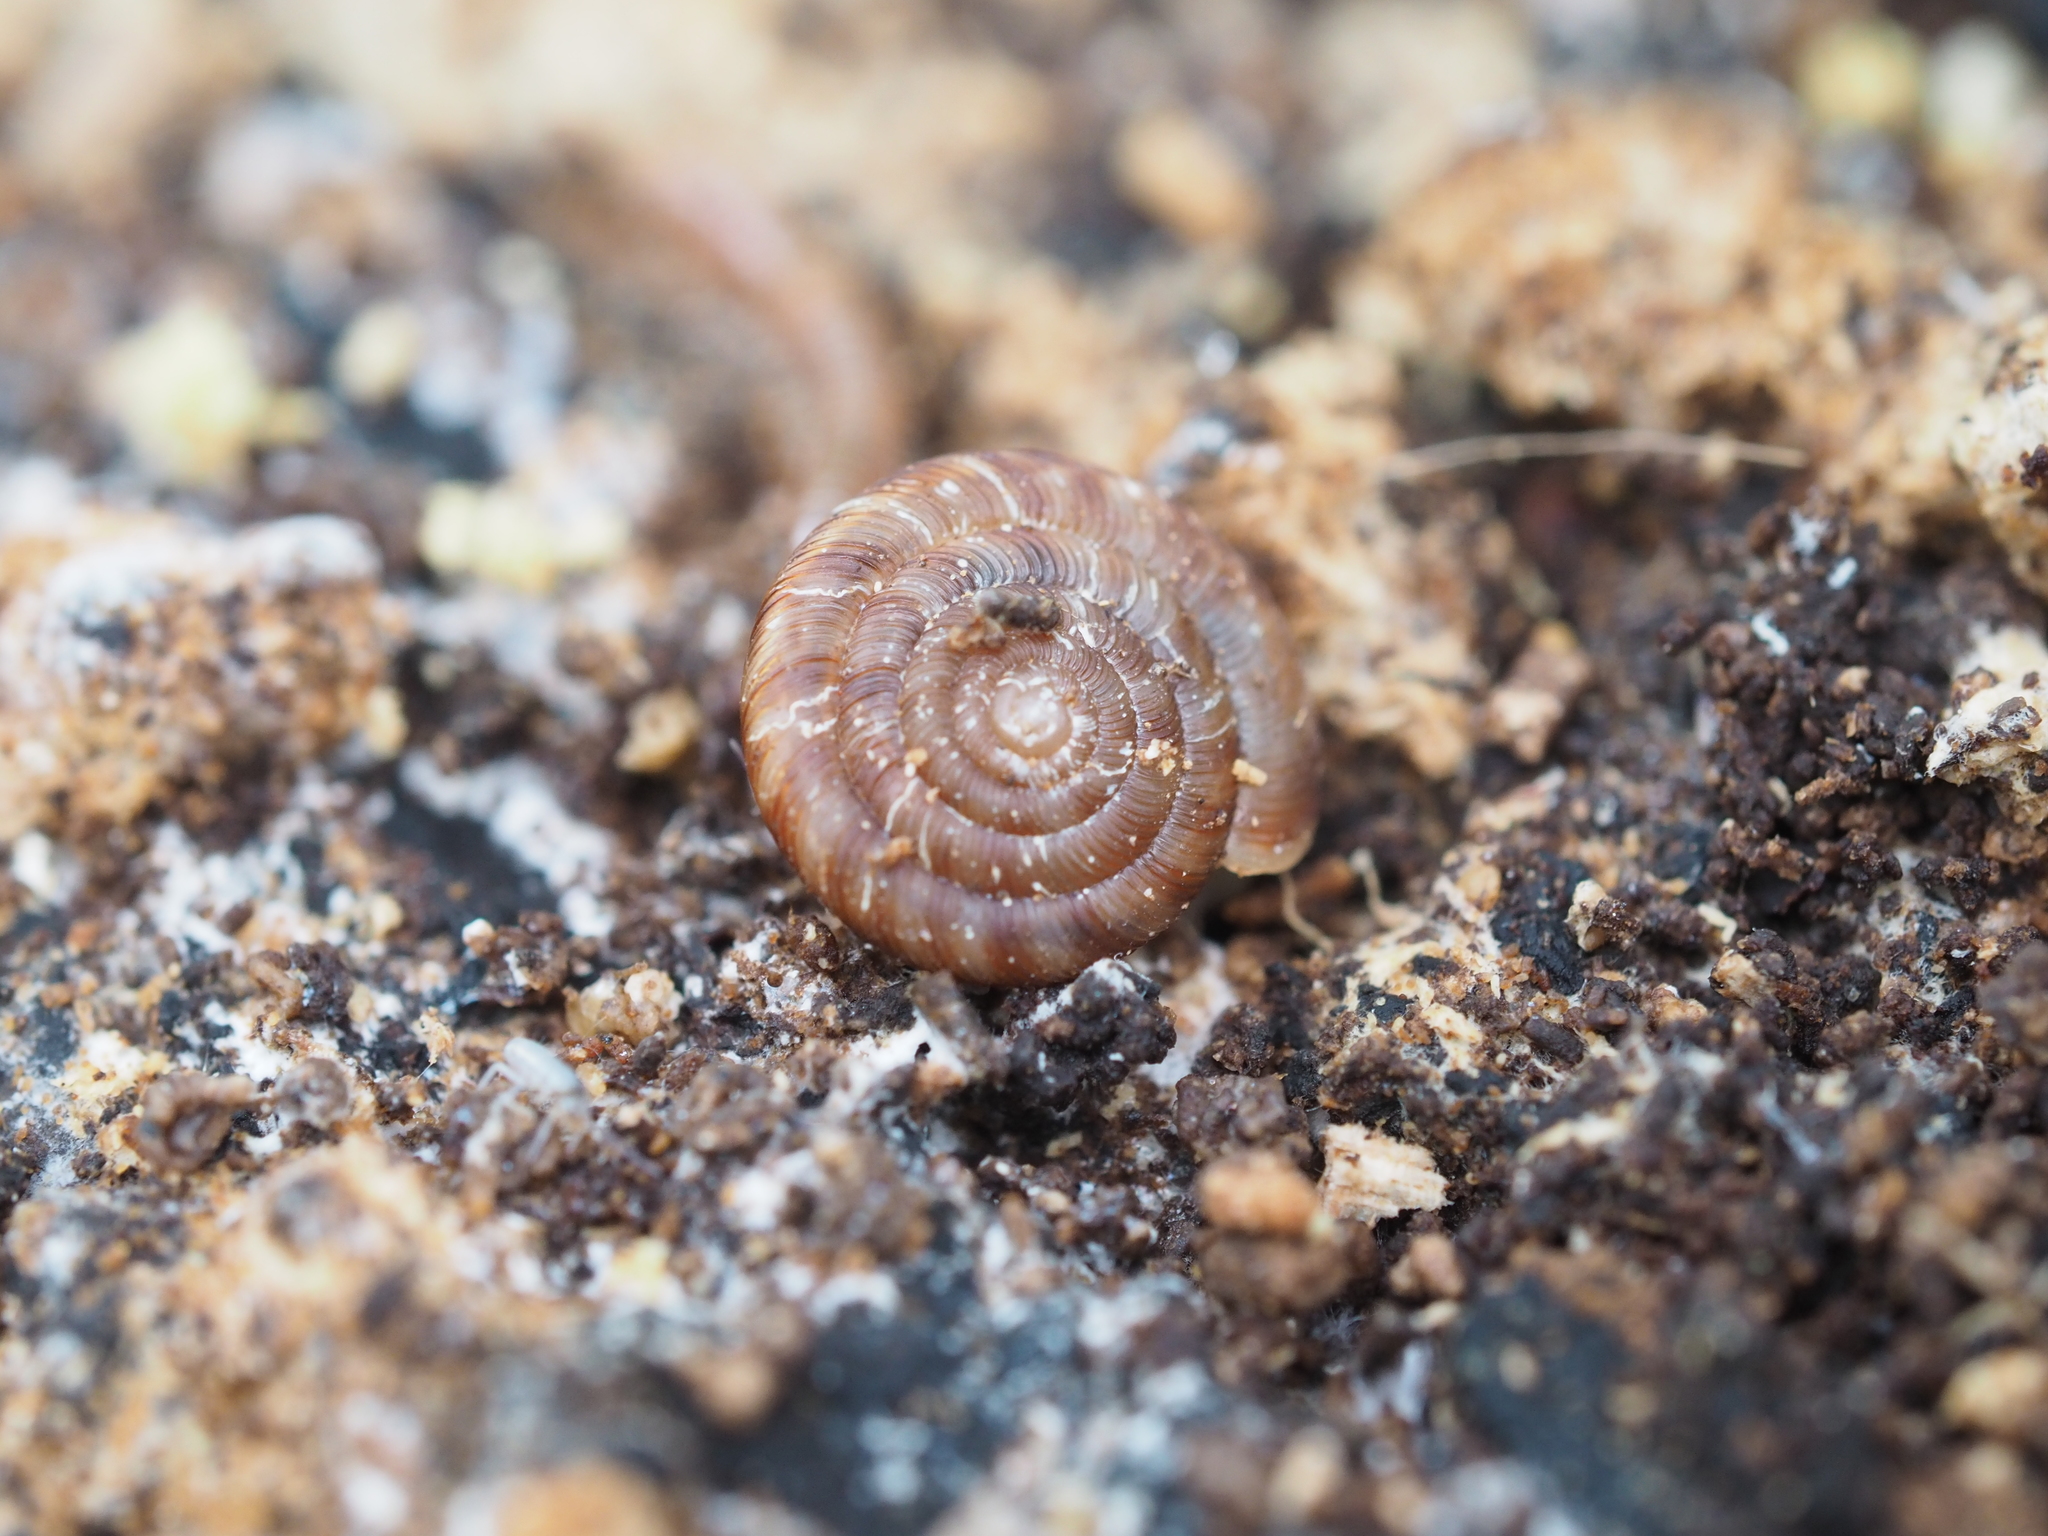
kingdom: Animalia
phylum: Mollusca
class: Gastropoda
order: Stylommatophora
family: Discidae
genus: Discus
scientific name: Discus rotundatus
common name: Rounded snail
